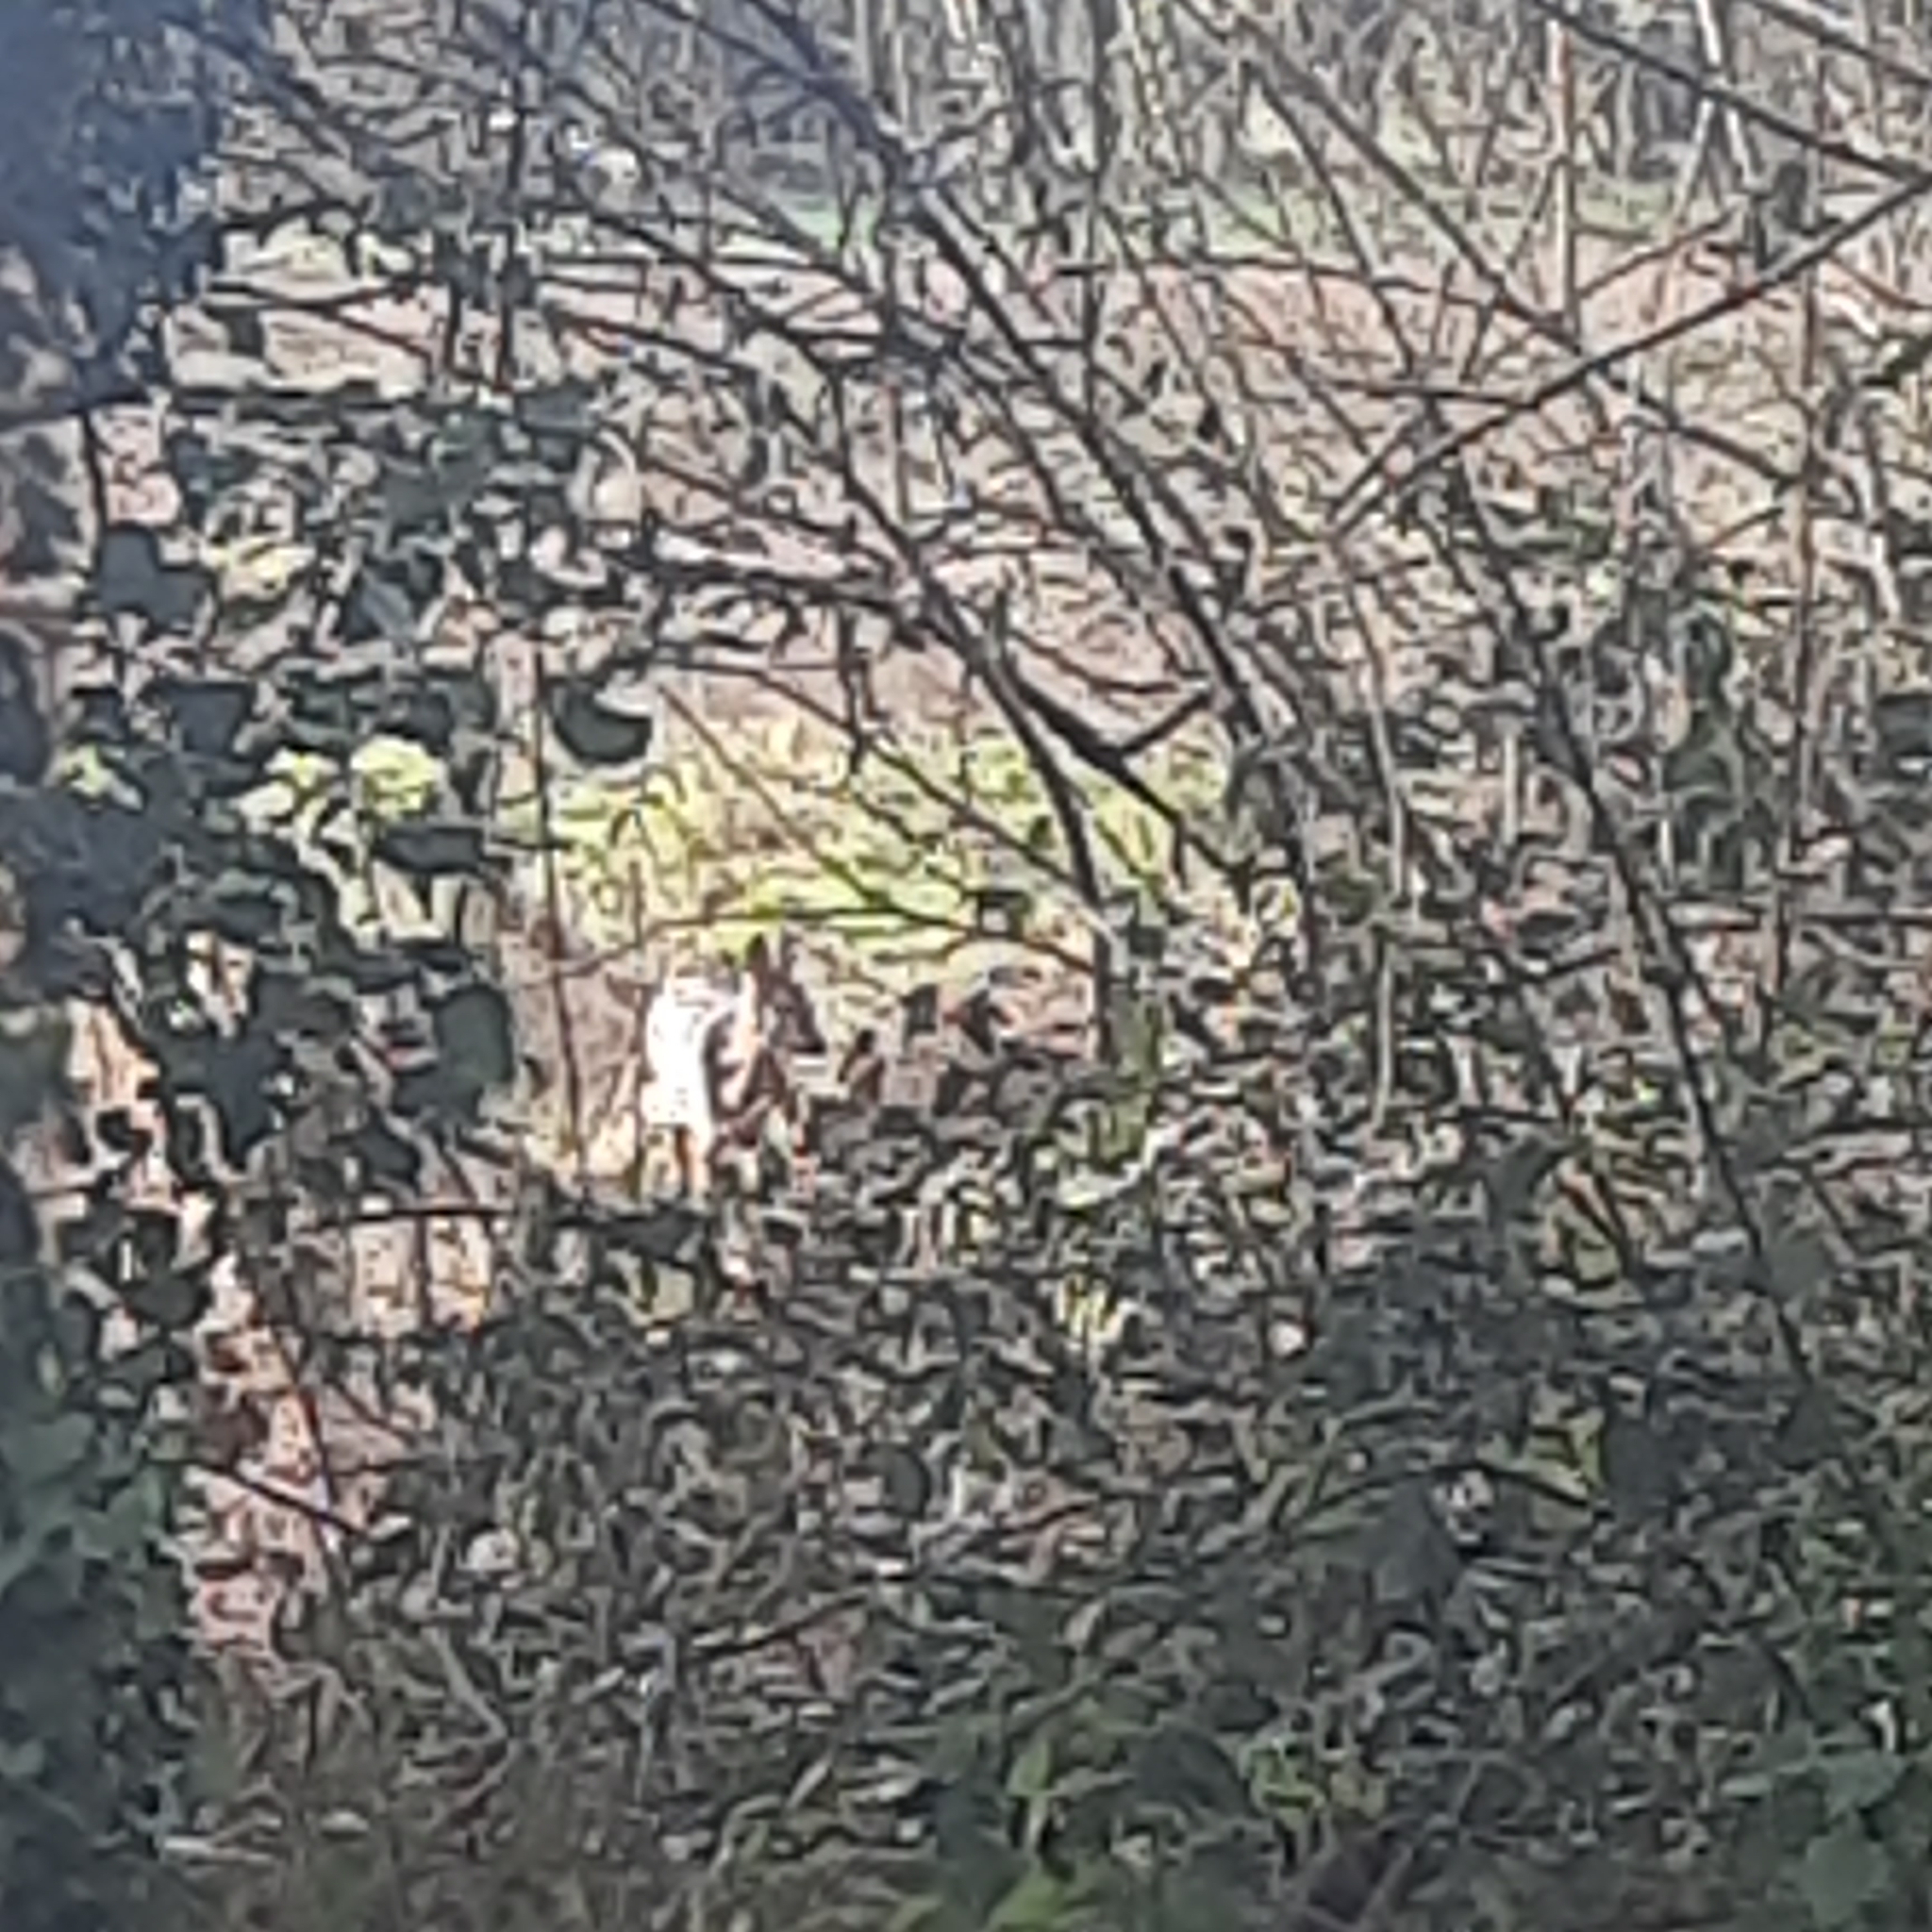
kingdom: Animalia
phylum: Chordata
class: Mammalia
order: Artiodactyla
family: Cervidae
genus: Capreolus
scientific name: Capreolus capreolus
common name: Western roe deer
